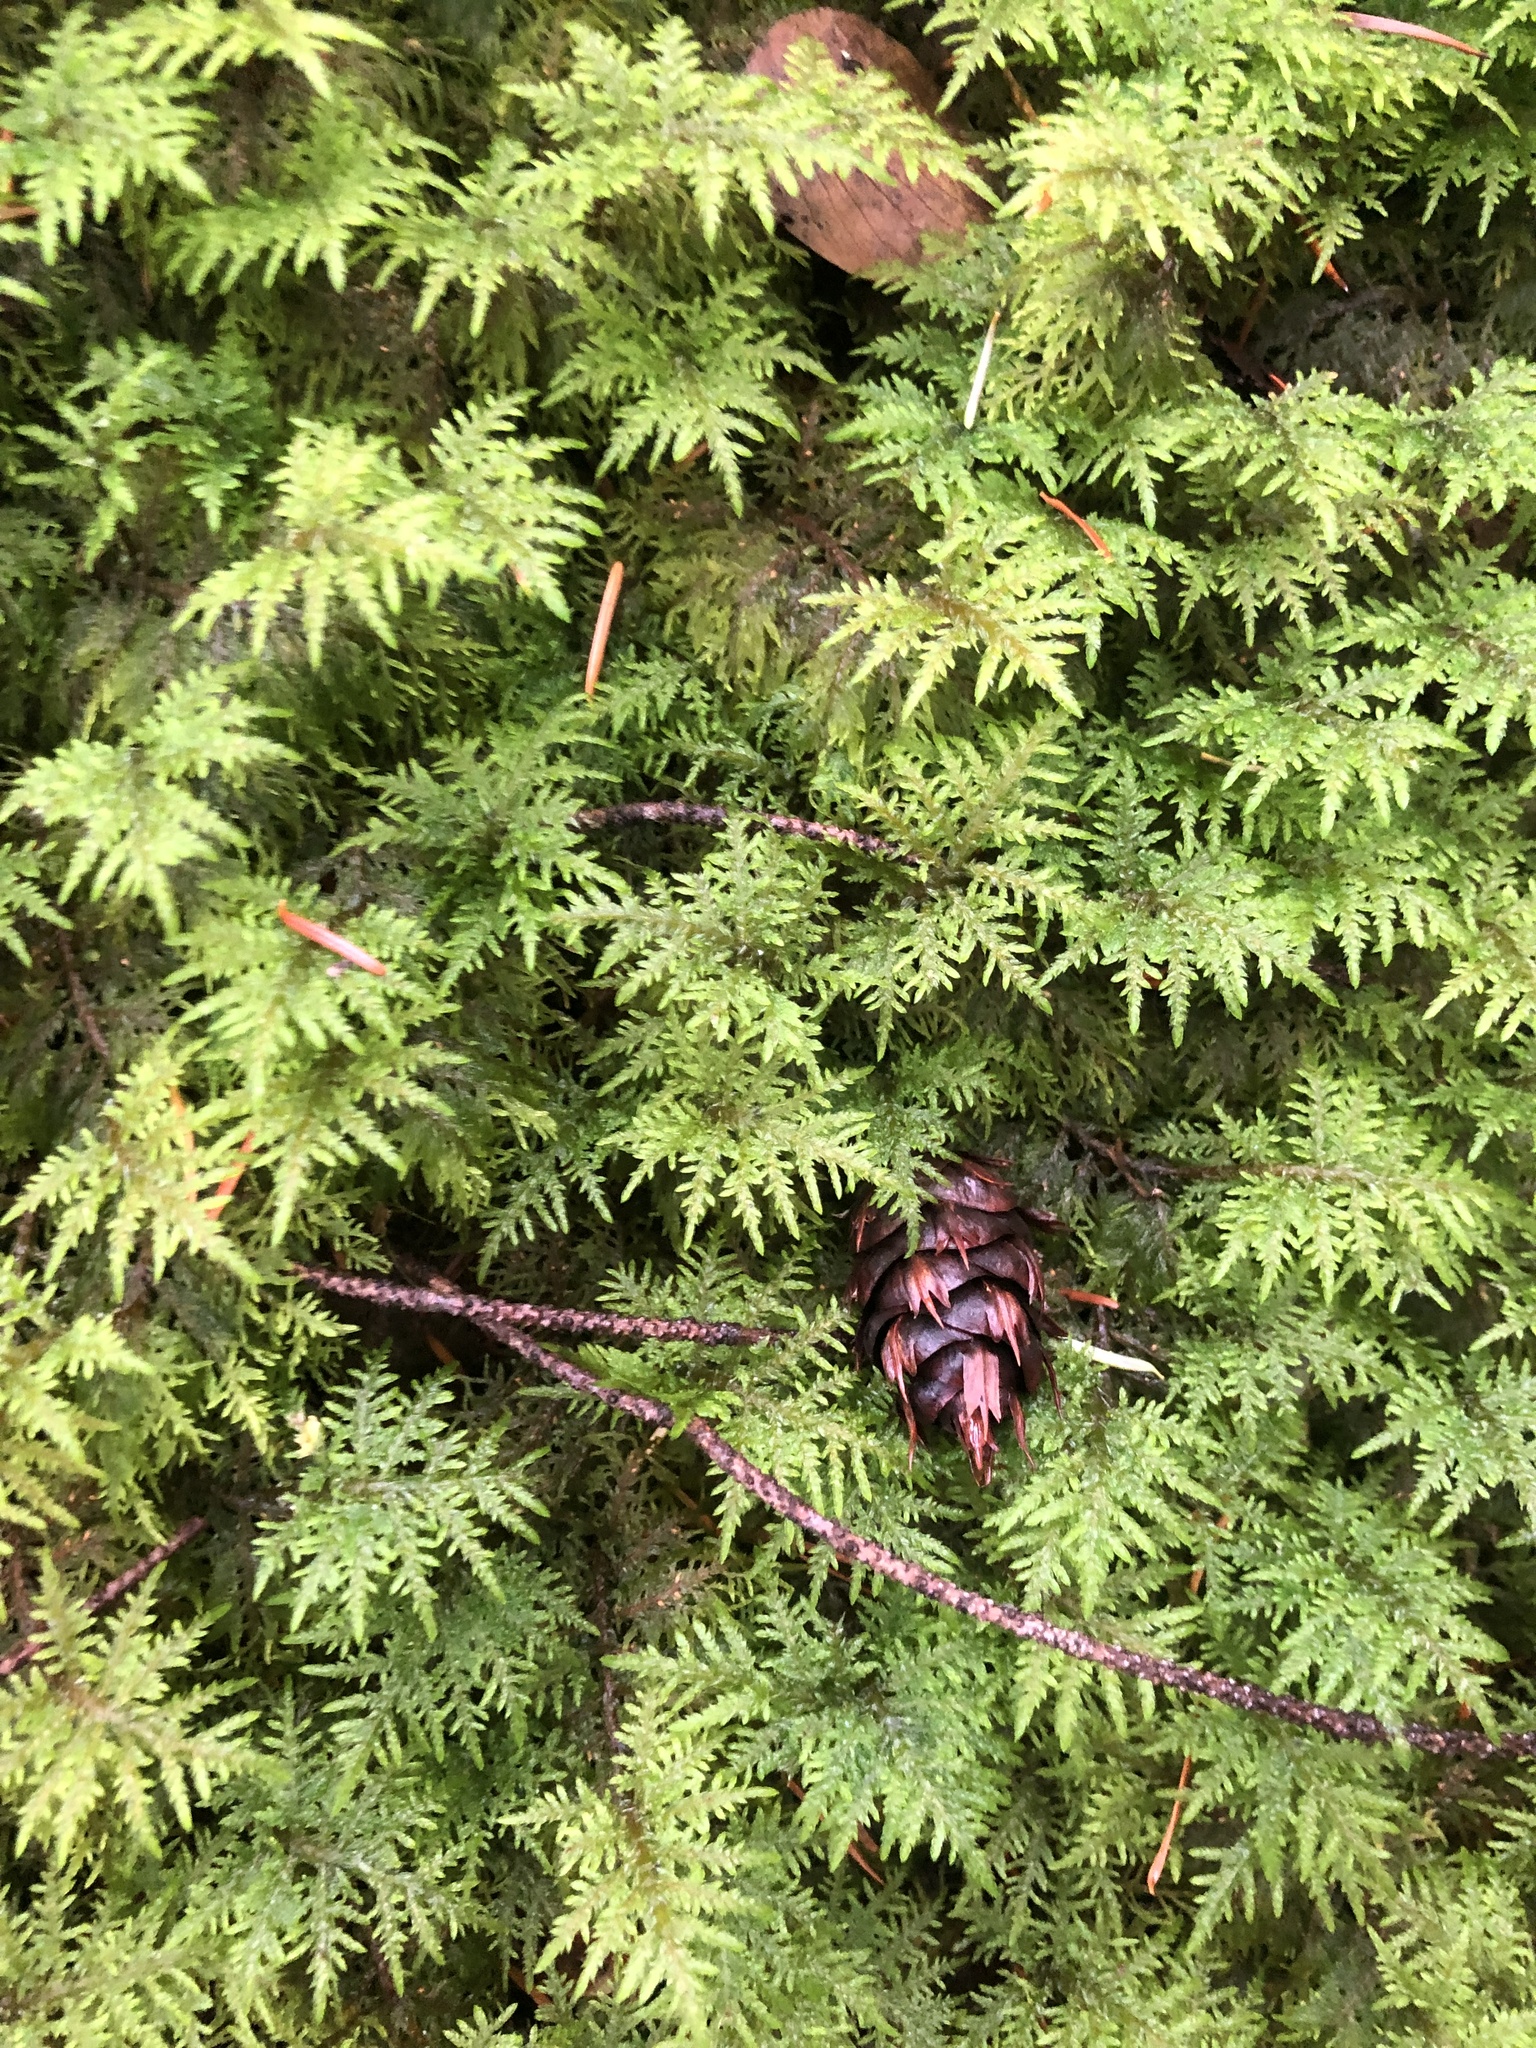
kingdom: Plantae
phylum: Bryophyta
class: Bryopsida
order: Hypnales
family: Hylocomiaceae
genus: Hylocomium
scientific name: Hylocomium splendens
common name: Stairstep moss
